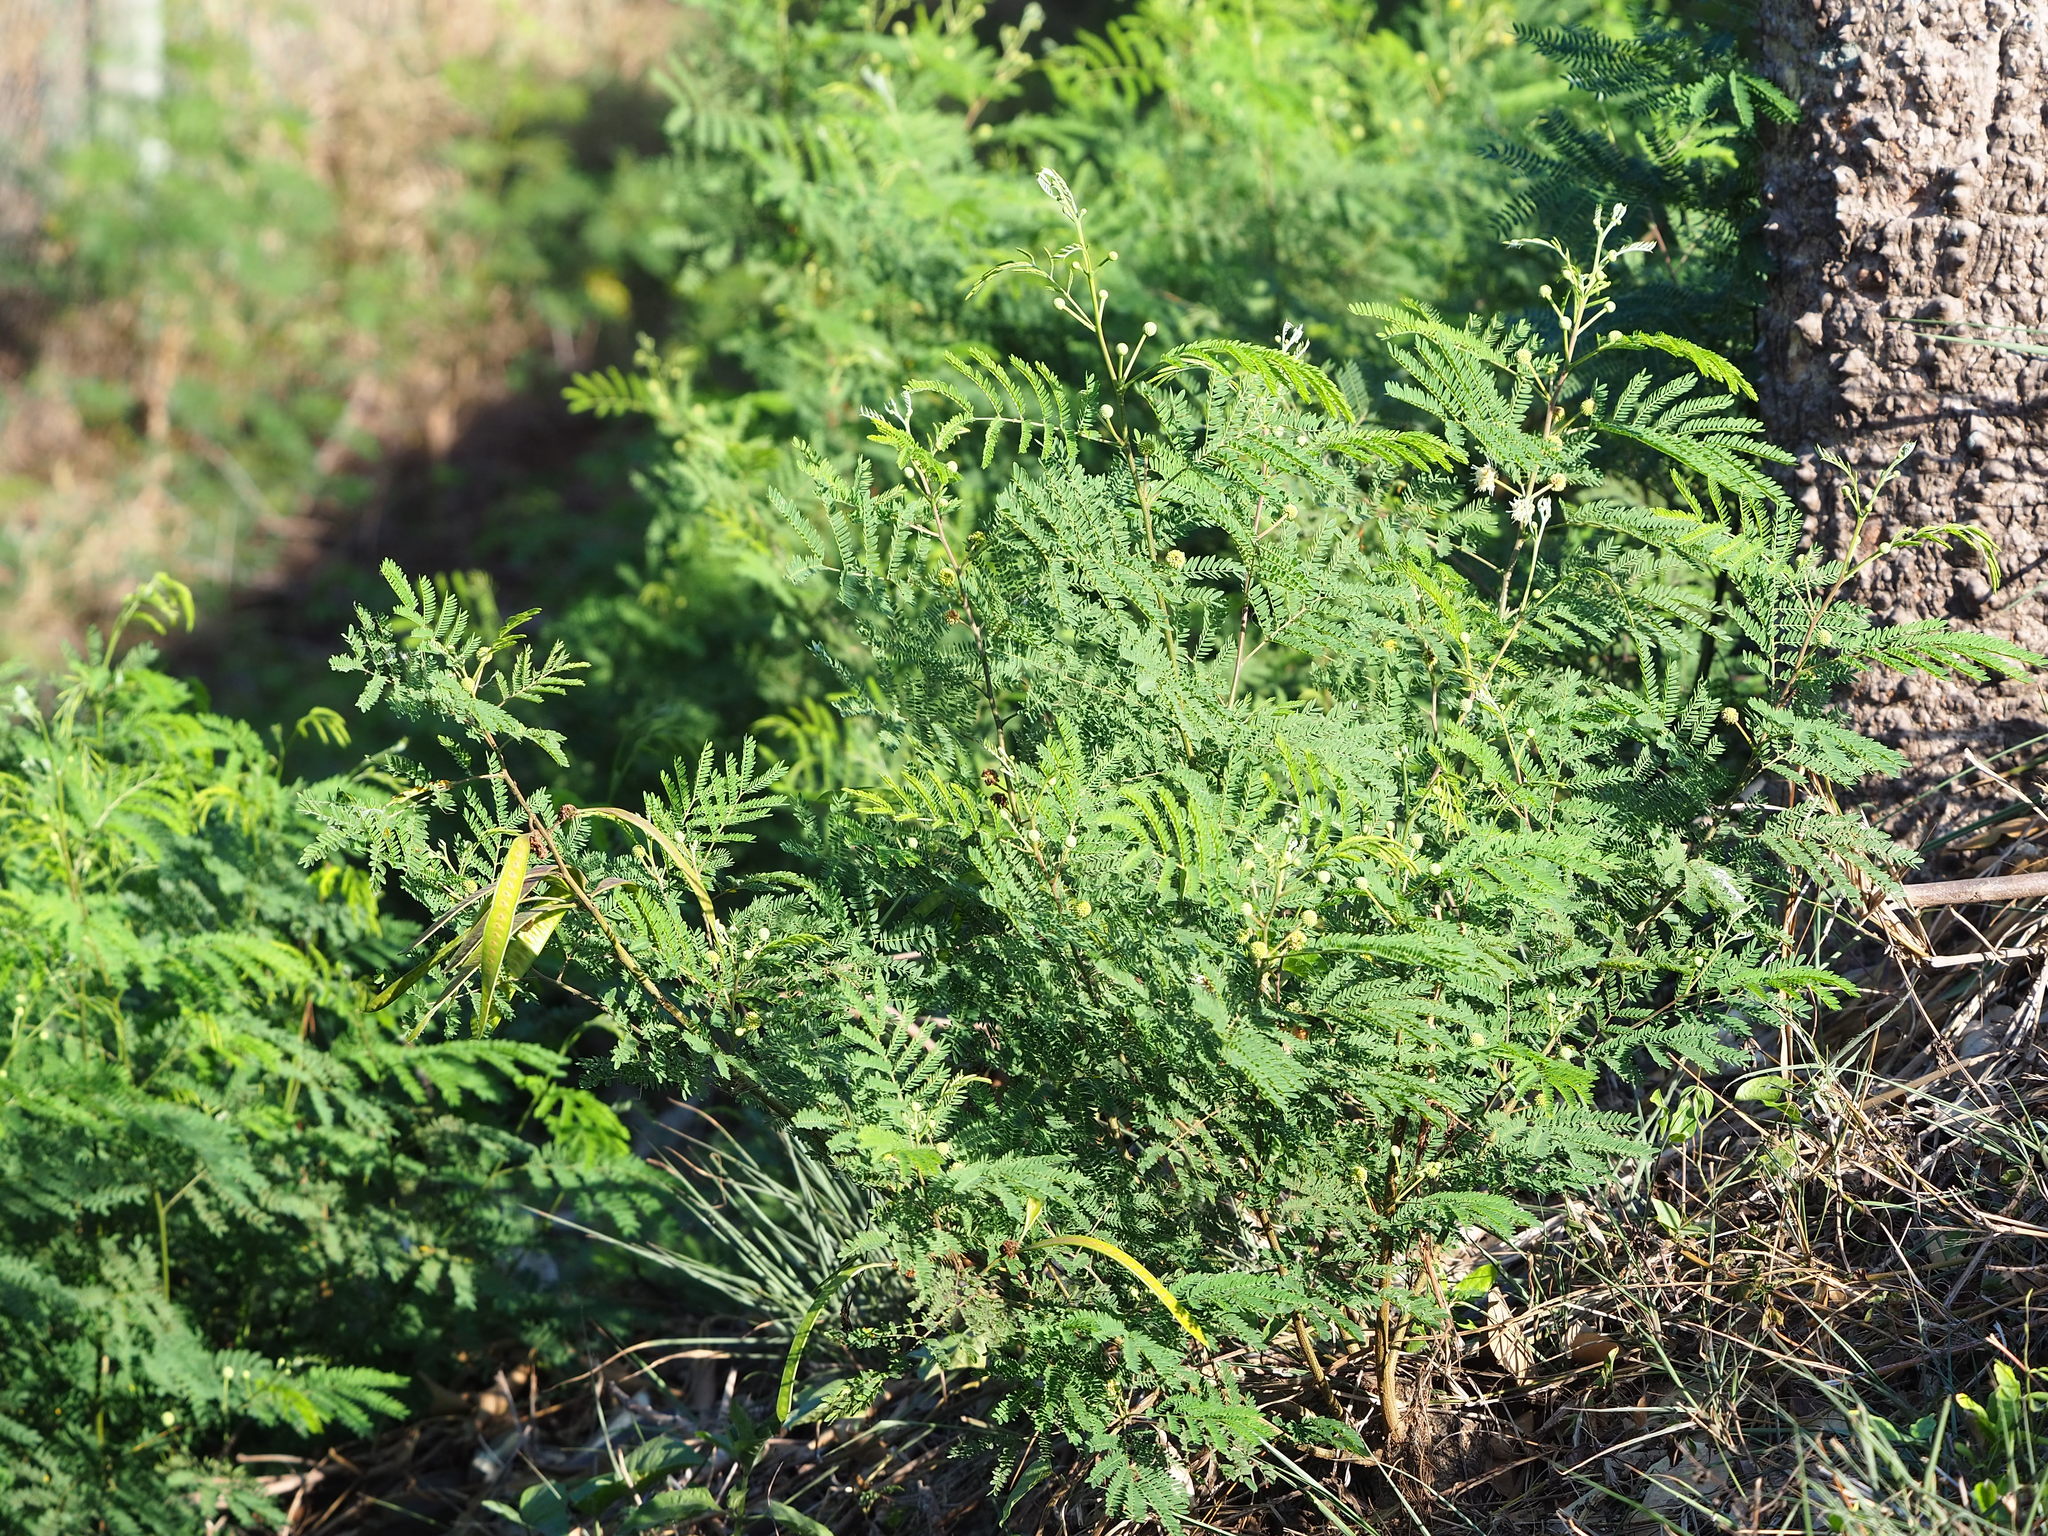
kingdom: Plantae
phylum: Tracheophyta
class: Magnoliopsida
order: Fabales
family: Fabaceae
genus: Leucaena
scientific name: Leucaena leucocephala
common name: White leadtree
